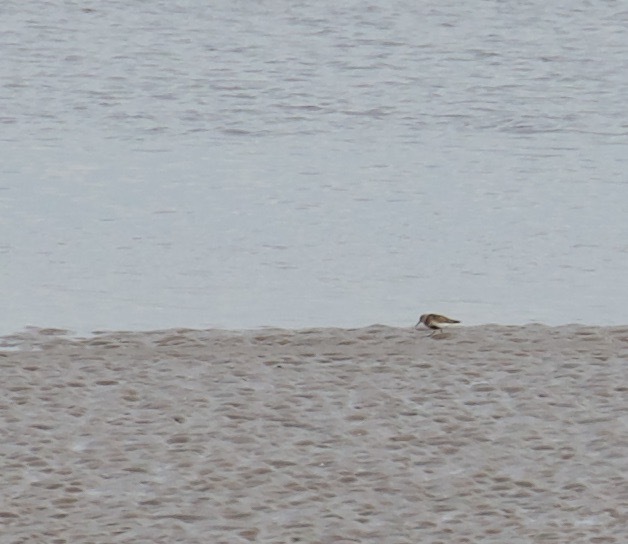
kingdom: Animalia
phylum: Chordata
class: Aves
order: Charadriiformes
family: Scolopacidae
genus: Calidris
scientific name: Calidris alpina
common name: Dunlin
